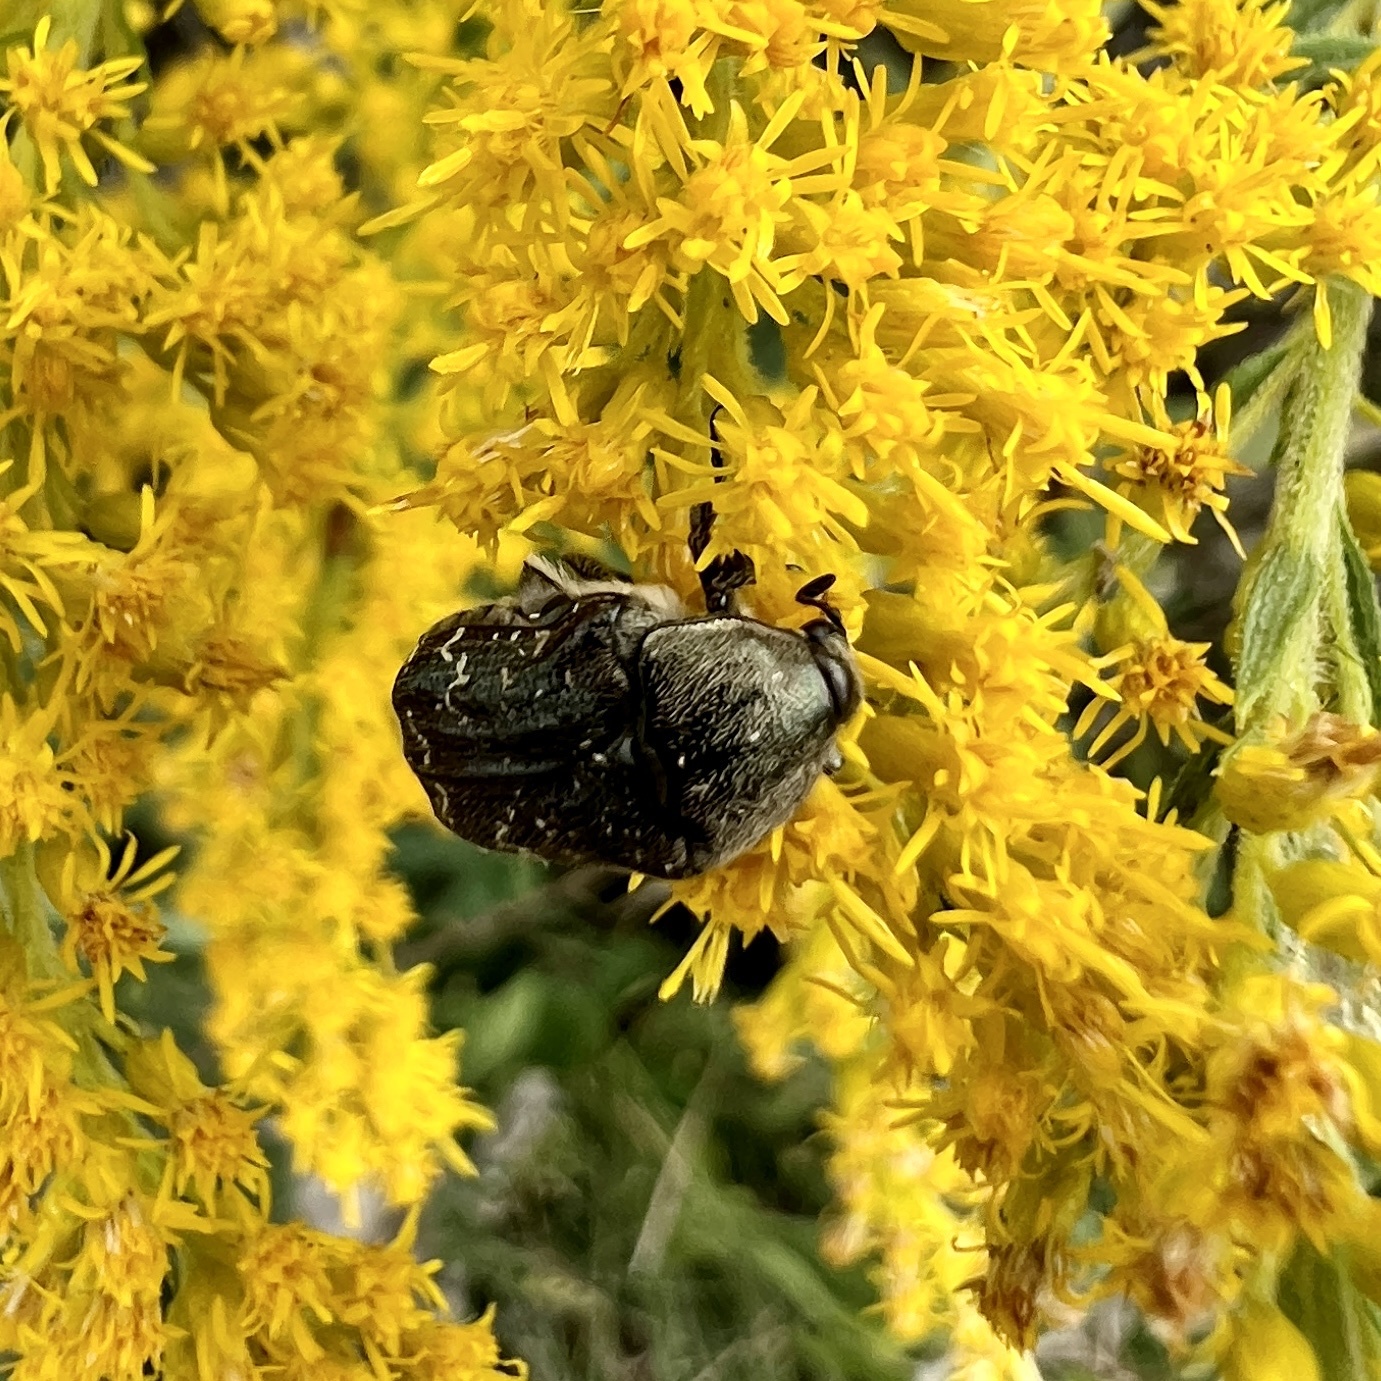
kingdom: Animalia
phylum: Arthropoda
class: Insecta
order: Coleoptera
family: Scarabaeidae
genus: Euphoria
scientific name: Euphoria sepulcralis
